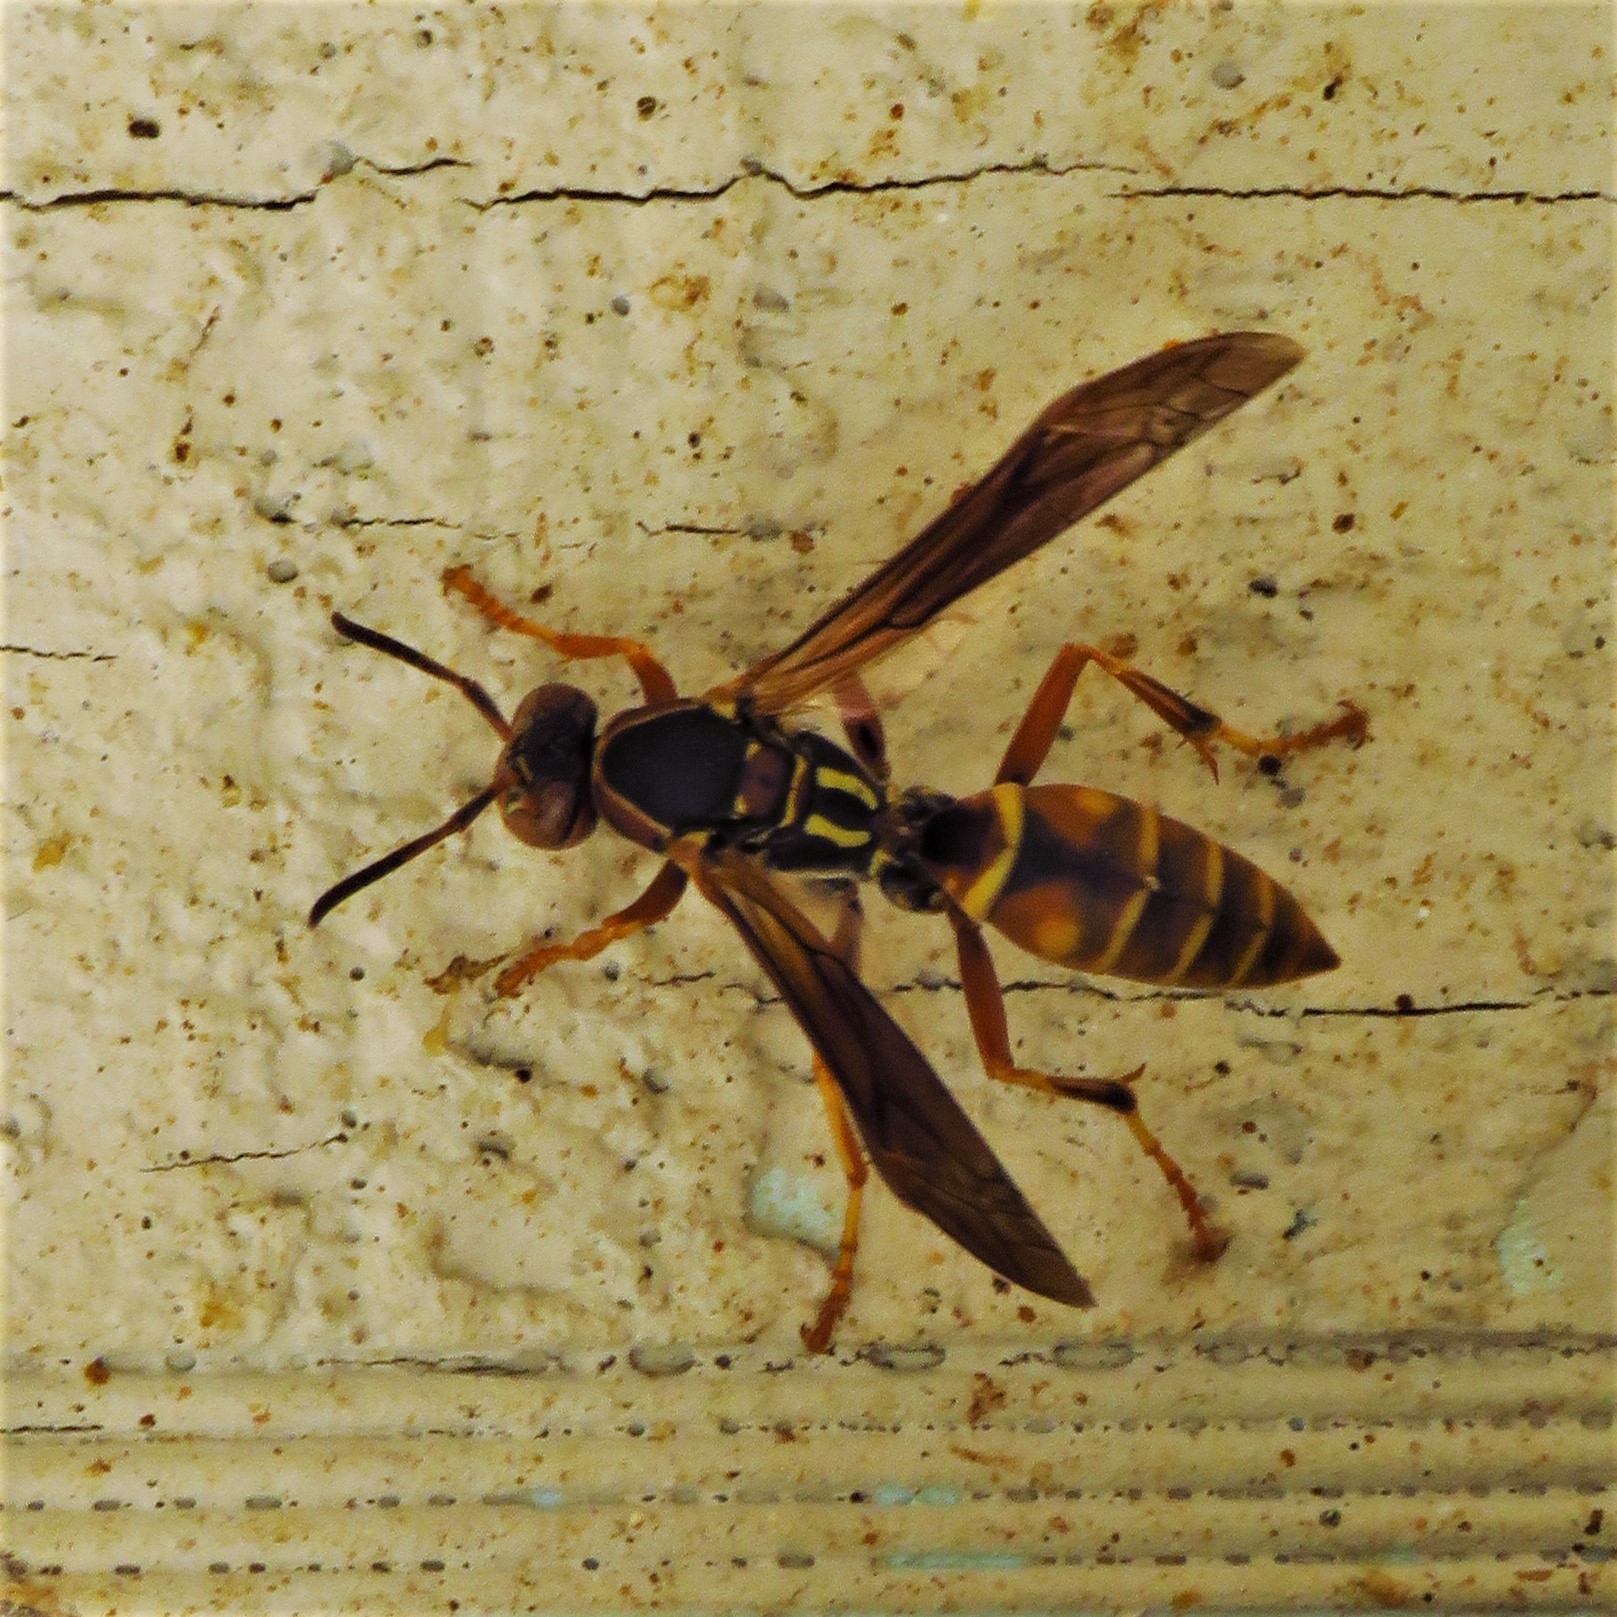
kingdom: Animalia
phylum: Arthropoda
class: Insecta
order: Hymenoptera
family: Eumenidae
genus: Polistes
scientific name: Polistes fuscatus
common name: Dark paper wasp
